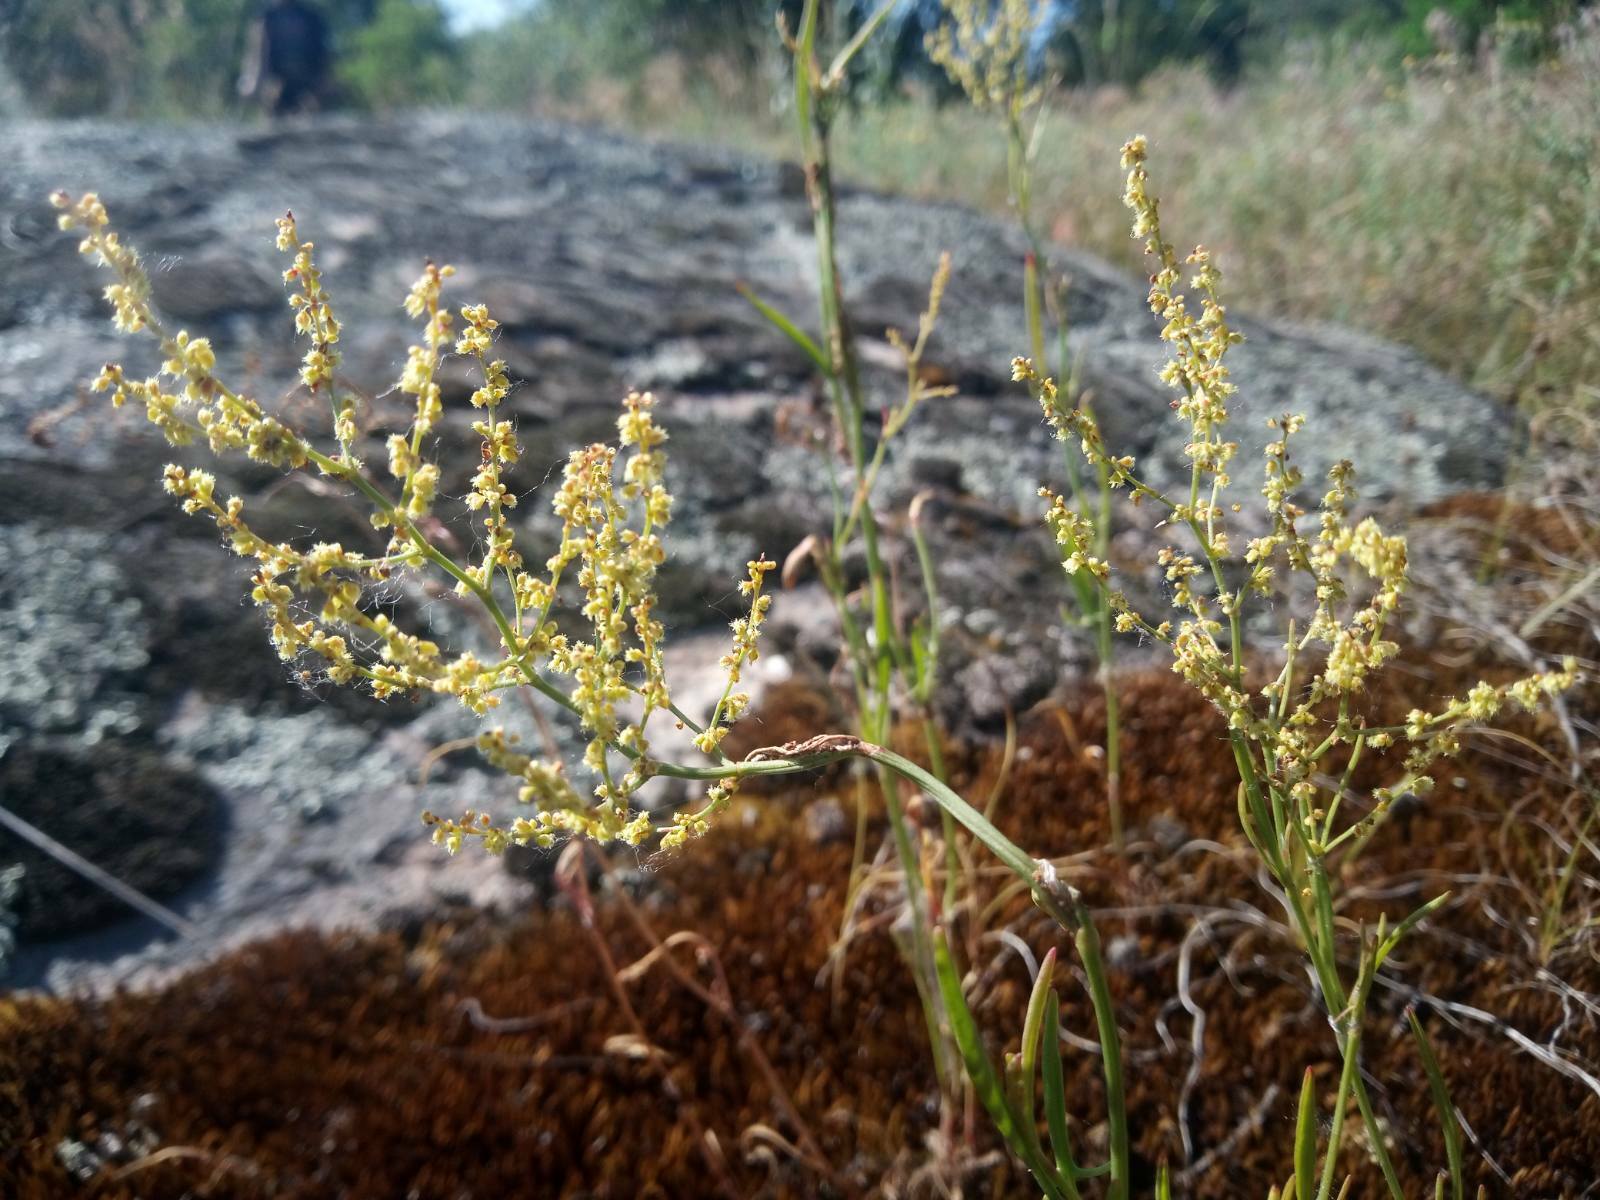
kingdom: Plantae
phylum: Tracheophyta
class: Magnoliopsida
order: Caryophyllales
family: Polygonaceae
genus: Rumex
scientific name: Rumex acetosella
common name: Common sheep sorrel
